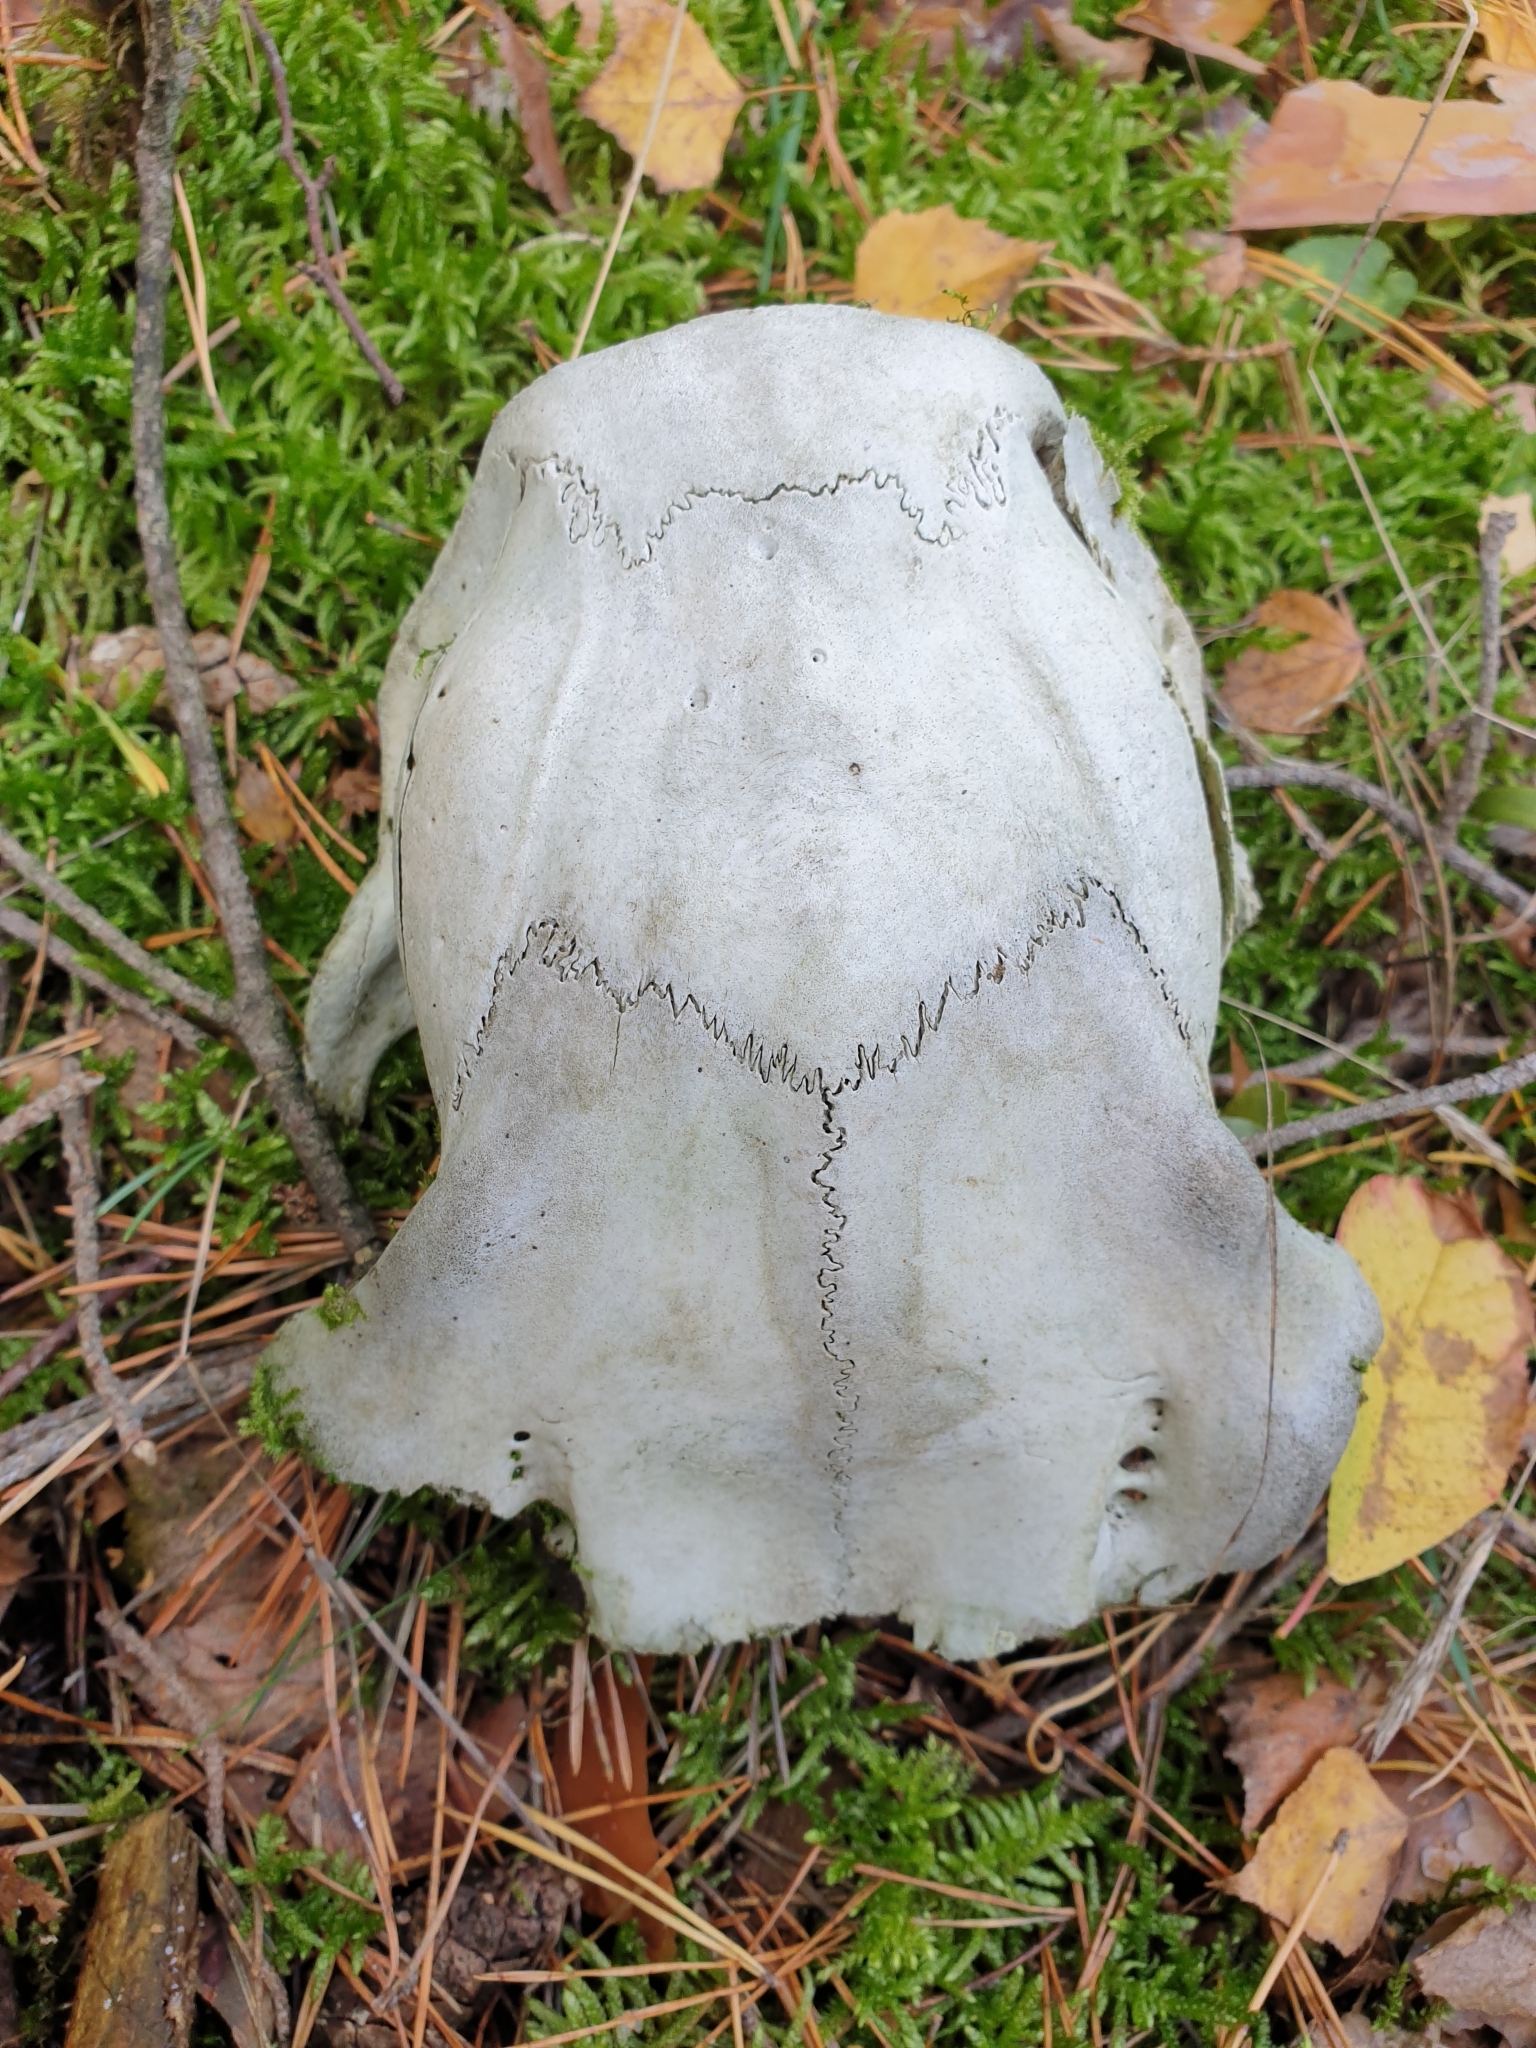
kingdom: Animalia
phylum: Chordata
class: Mammalia
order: Artiodactyla
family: Cervidae
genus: Capreolus
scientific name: Capreolus capreolus
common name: Western roe deer
